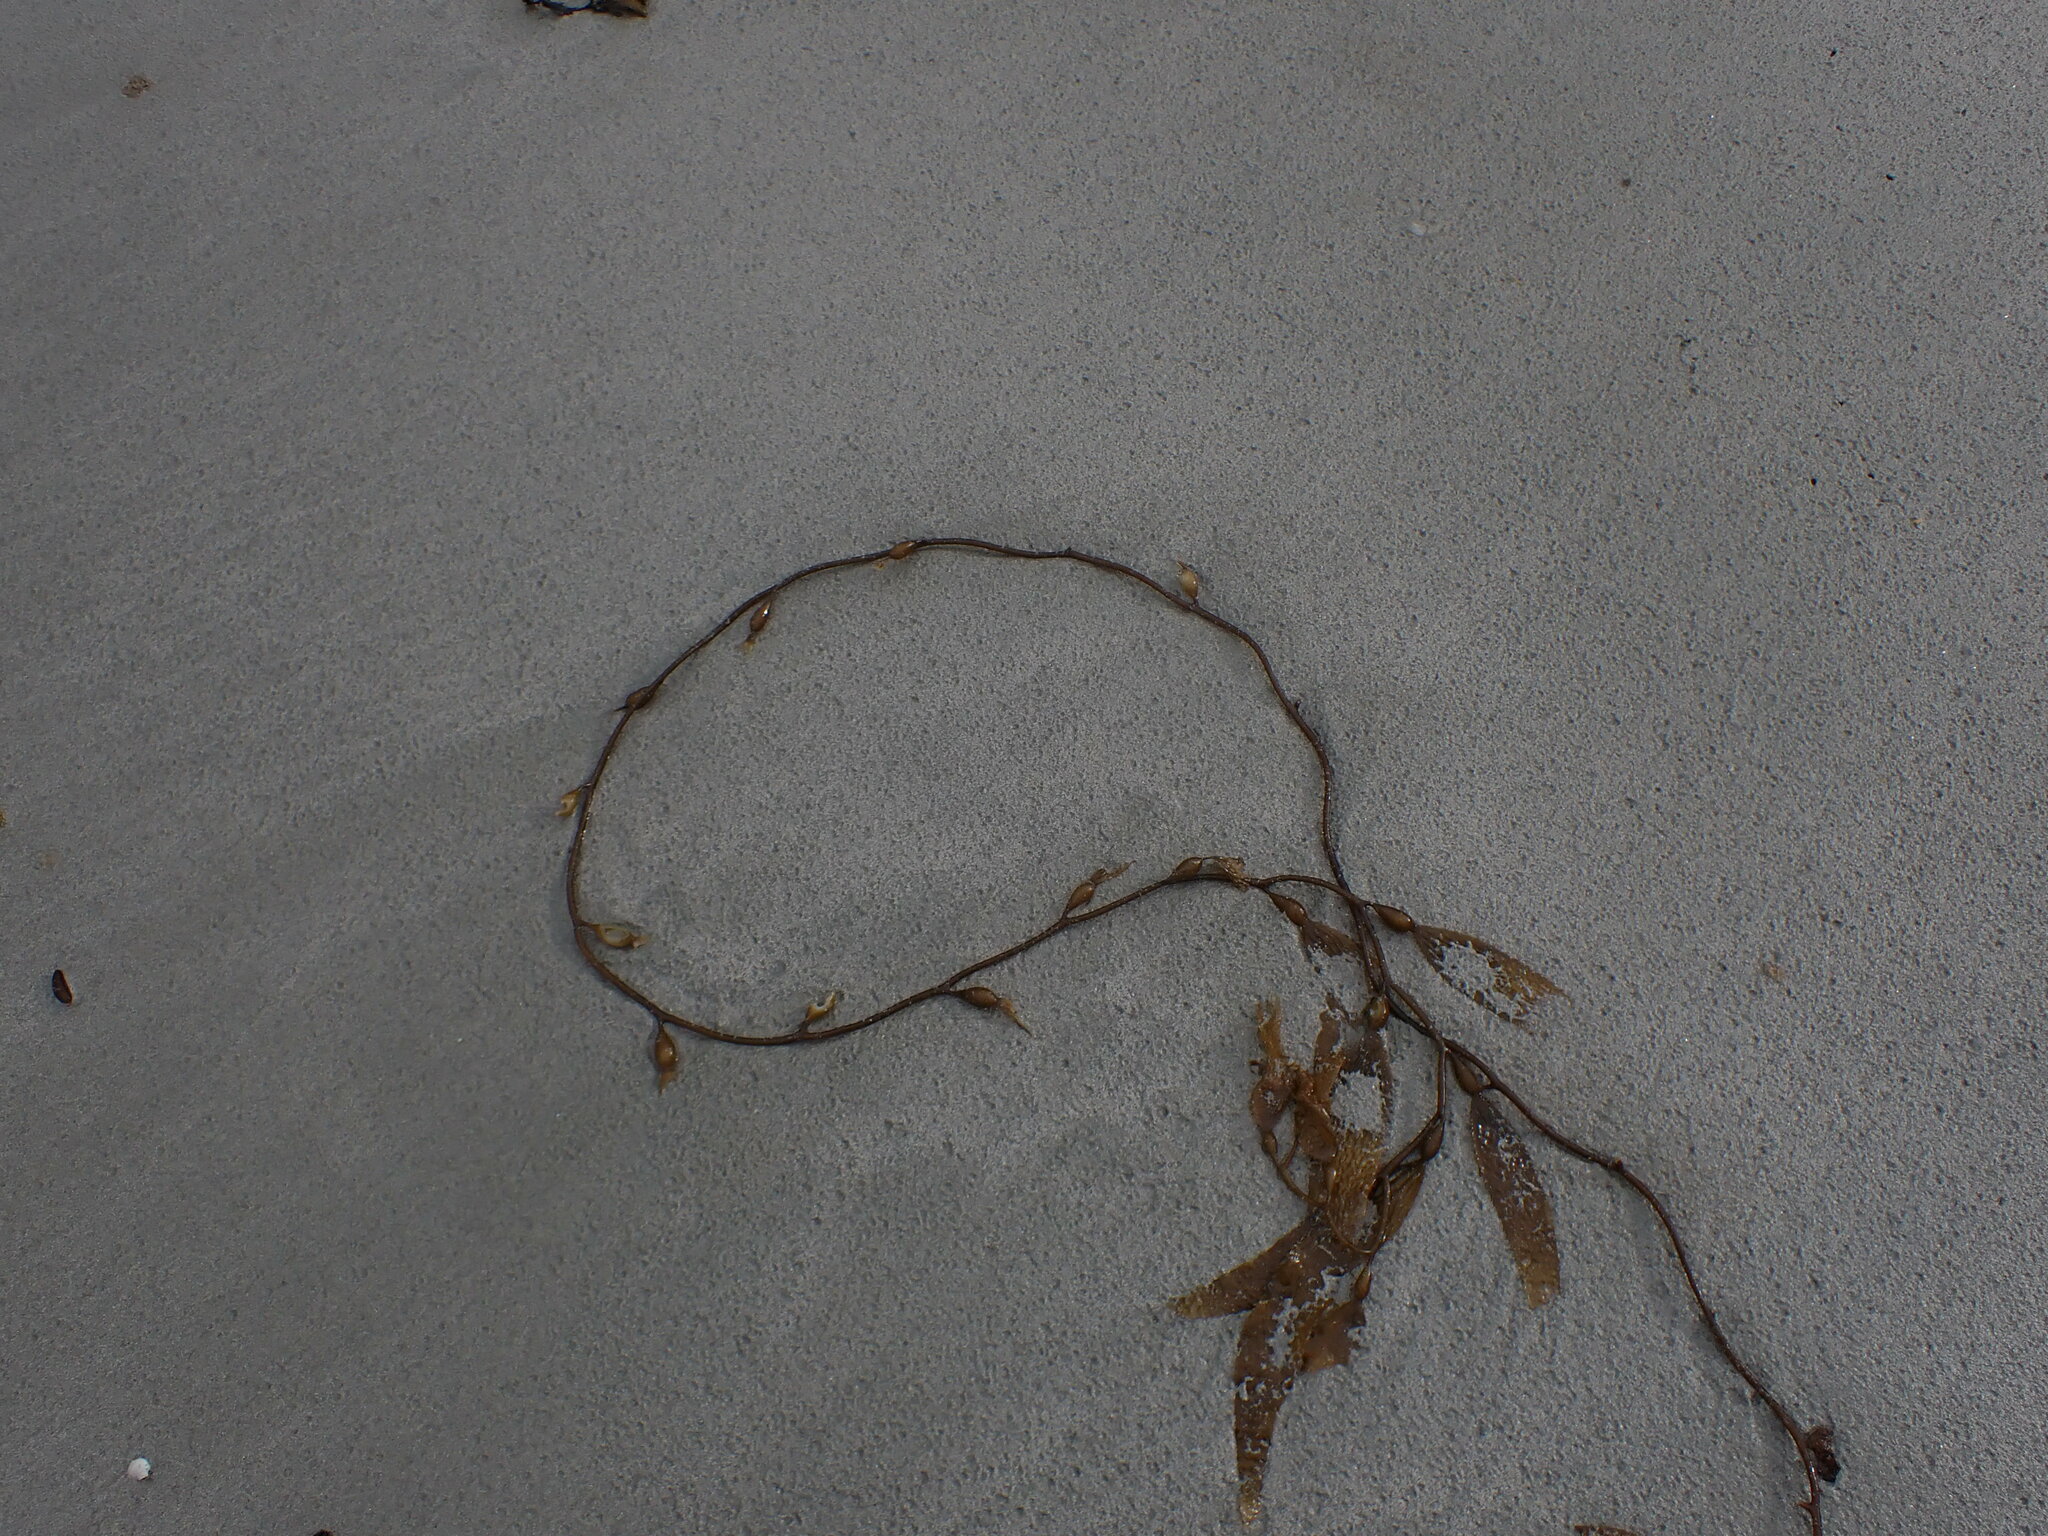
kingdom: Chromista
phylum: Ochrophyta
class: Phaeophyceae
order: Laminariales
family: Laminariaceae
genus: Macrocystis
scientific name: Macrocystis pyrifera
